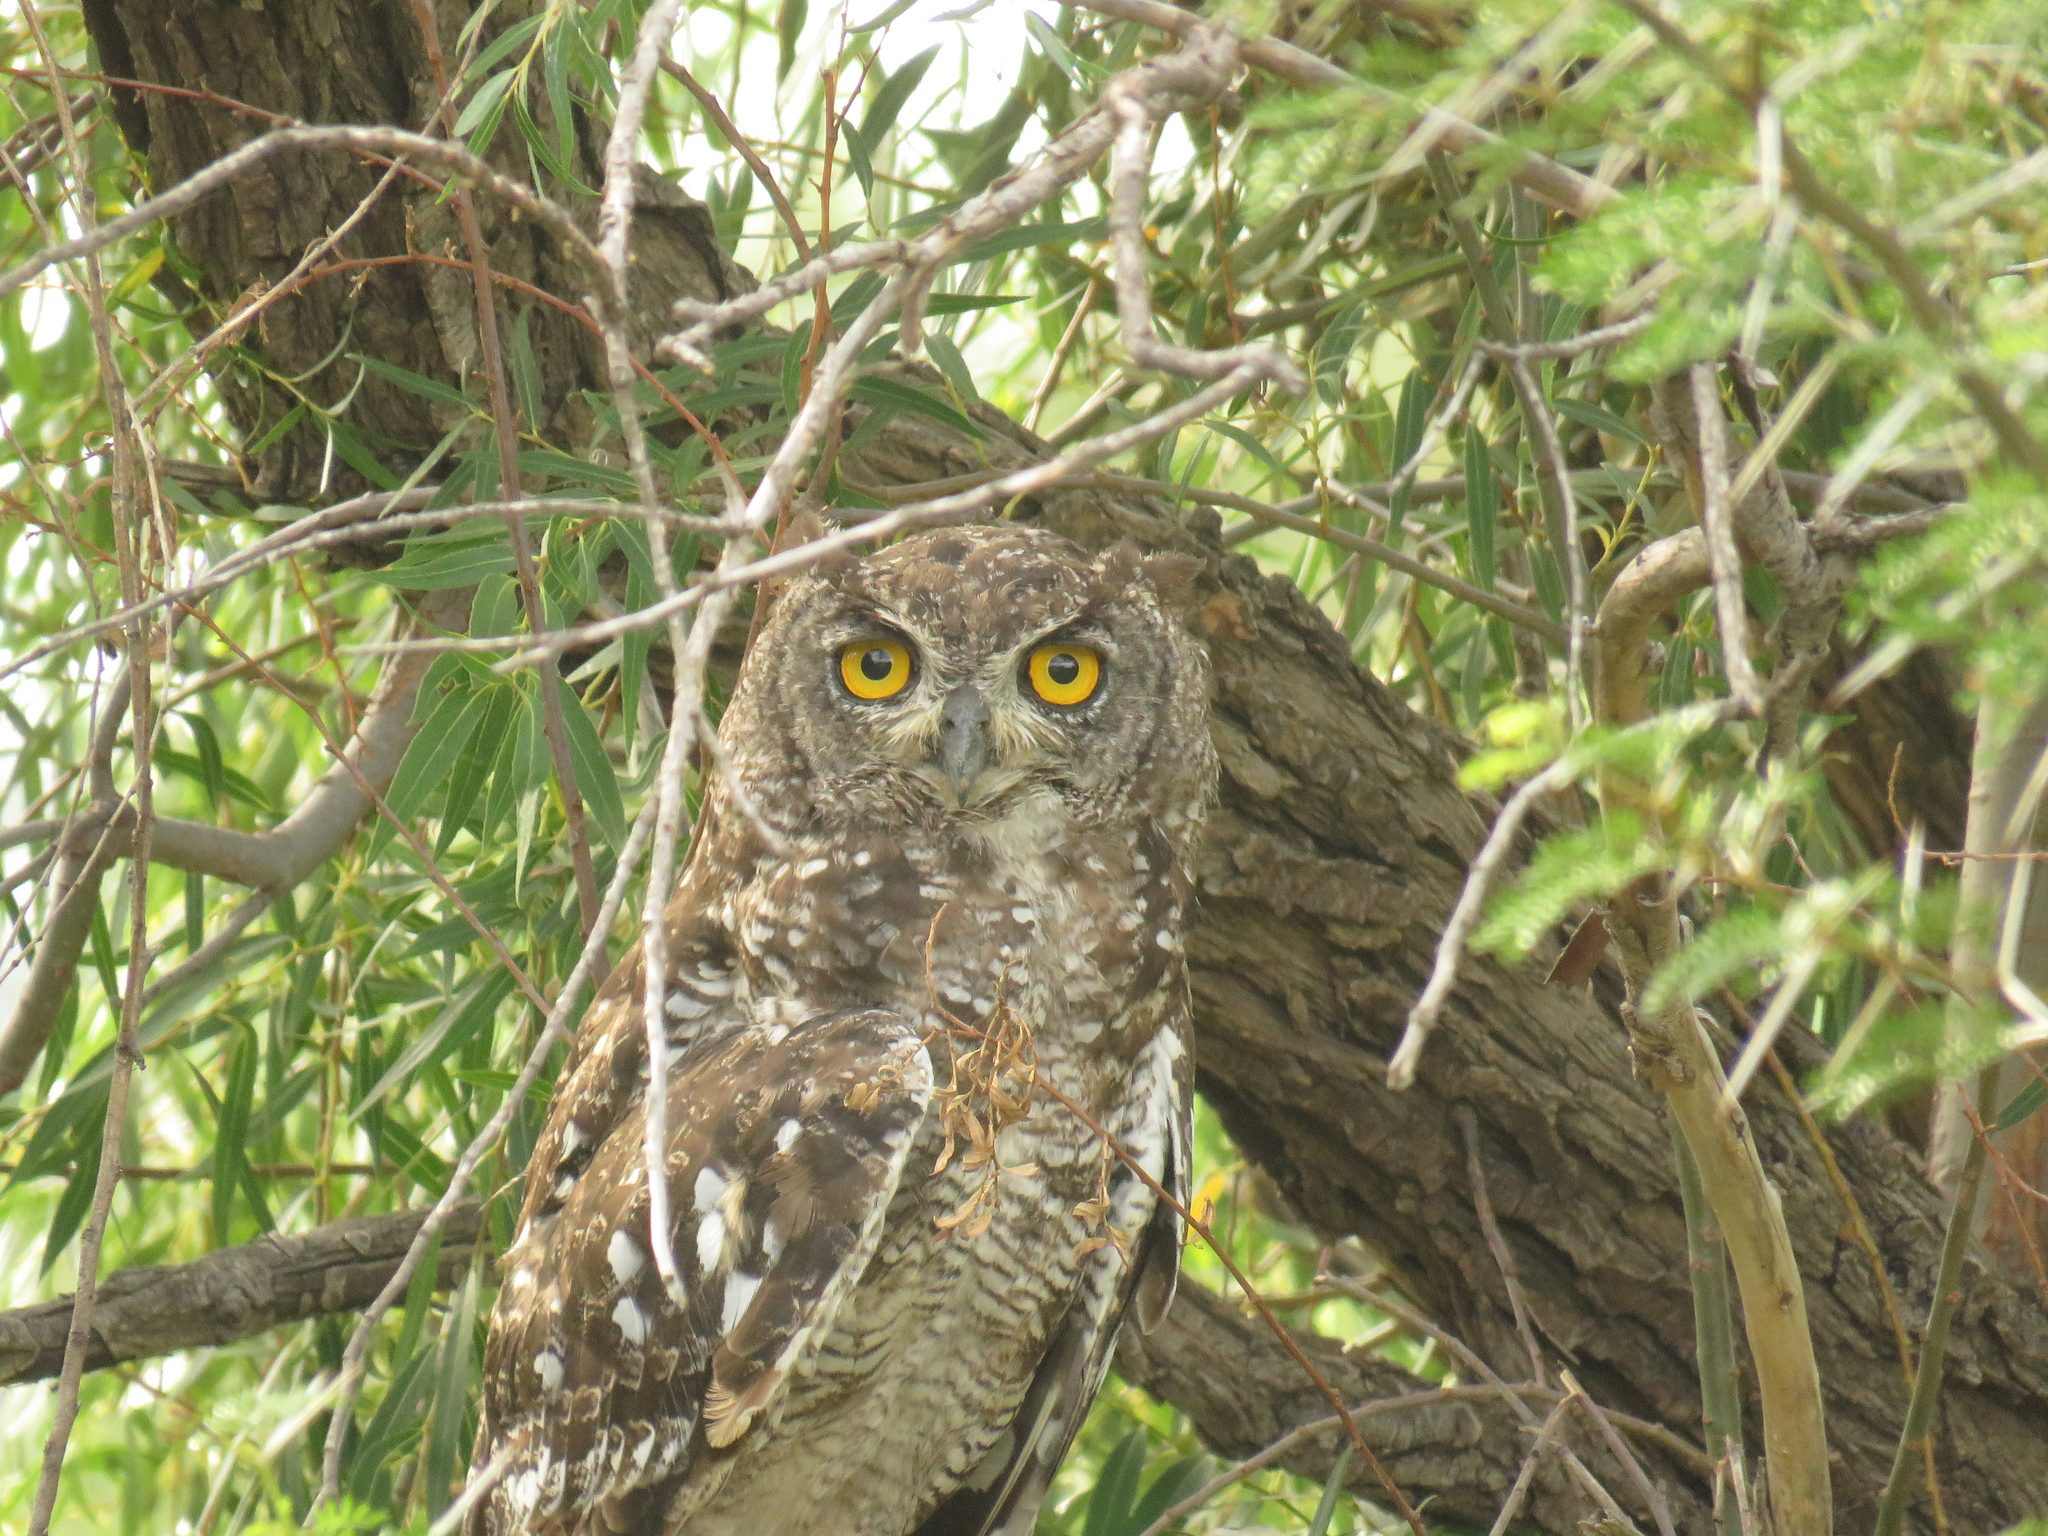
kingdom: Animalia
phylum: Chordata
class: Aves
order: Strigiformes
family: Strigidae
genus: Bubo
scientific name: Bubo africanus
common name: Spotted eagle-owl
